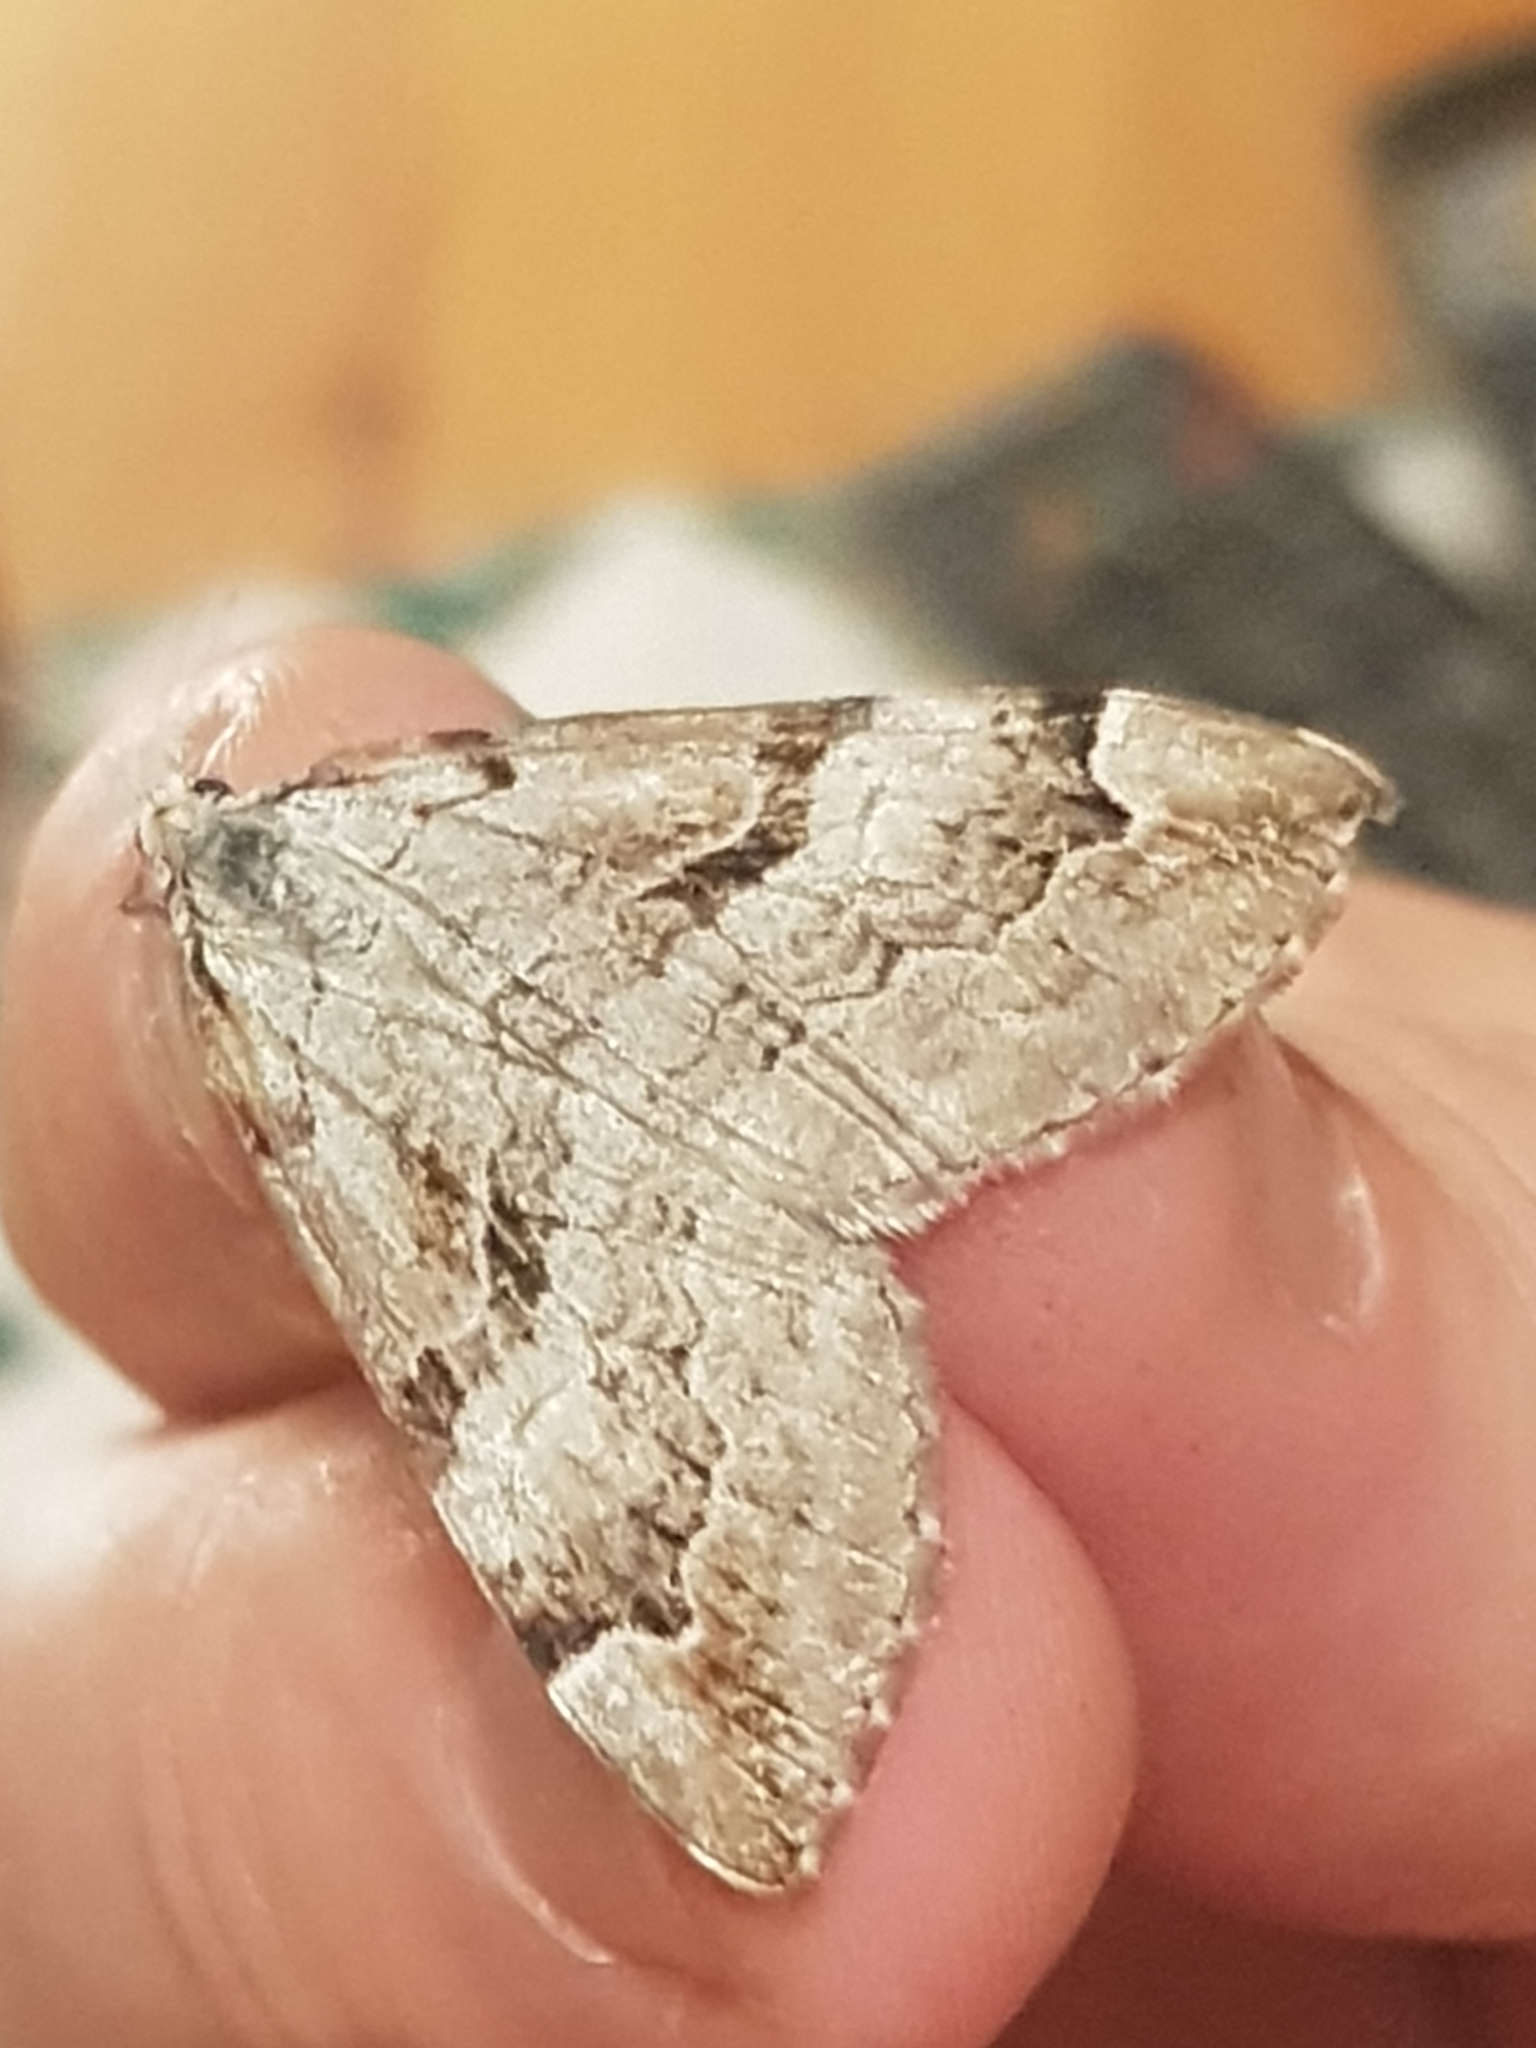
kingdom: Animalia
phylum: Arthropoda
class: Insecta
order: Lepidoptera
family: Geometridae
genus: Aplocera
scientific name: Aplocera praeformata
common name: Purple treble-bar
